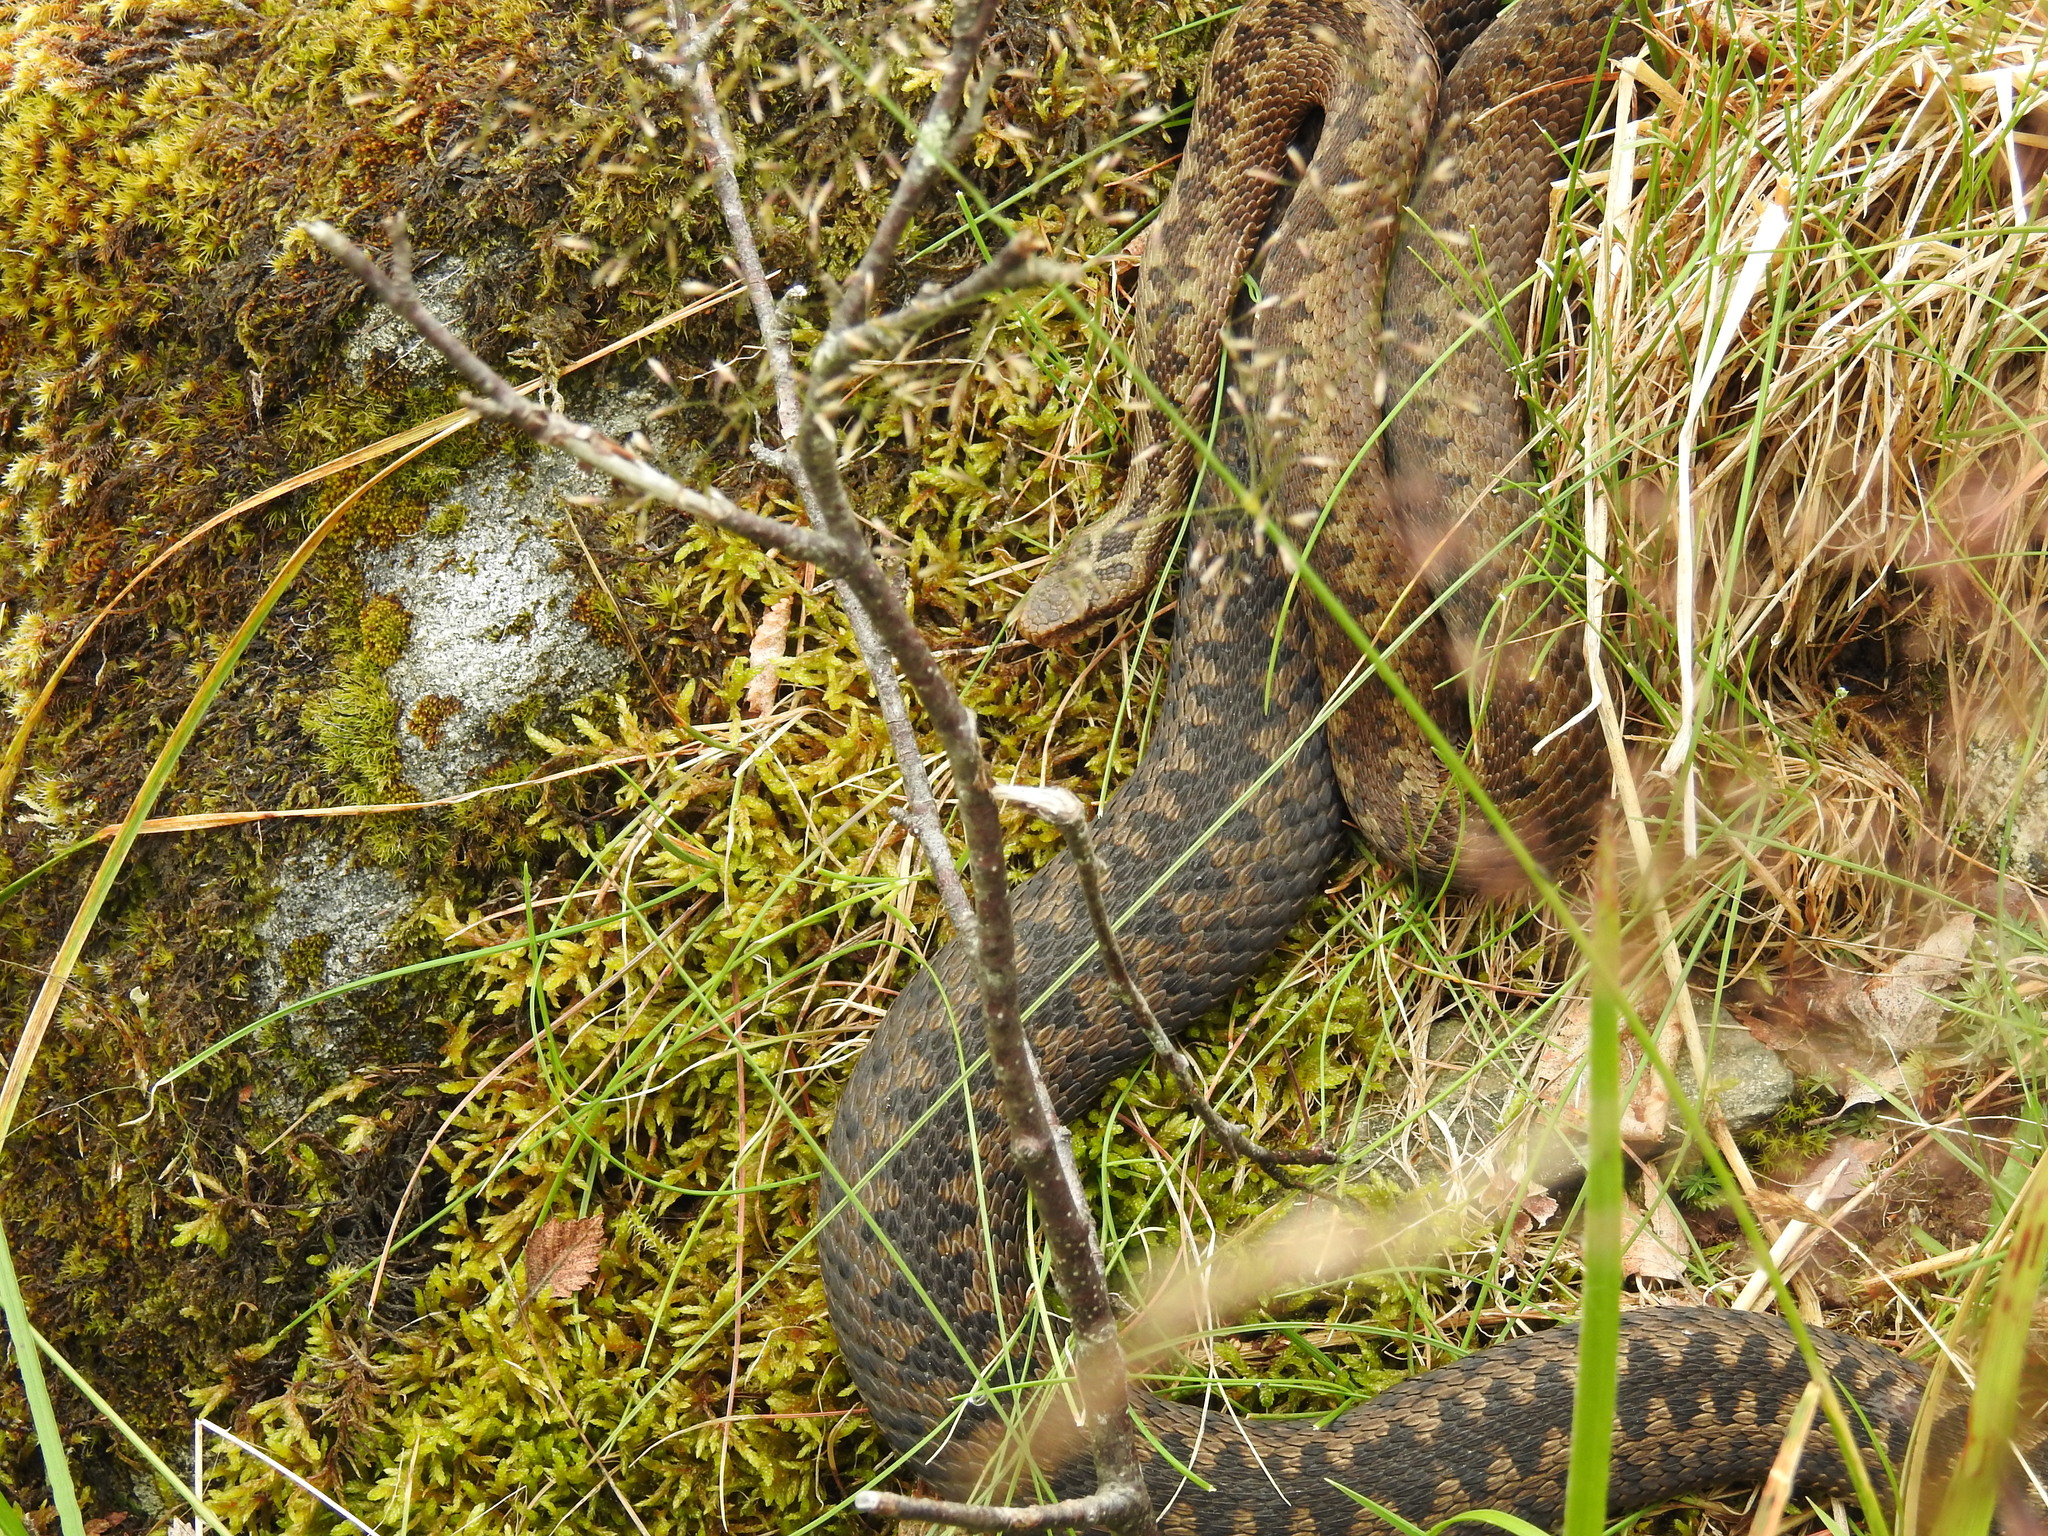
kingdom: Animalia
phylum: Chordata
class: Squamata
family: Viperidae
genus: Vipera
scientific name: Vipera berus
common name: Adder
